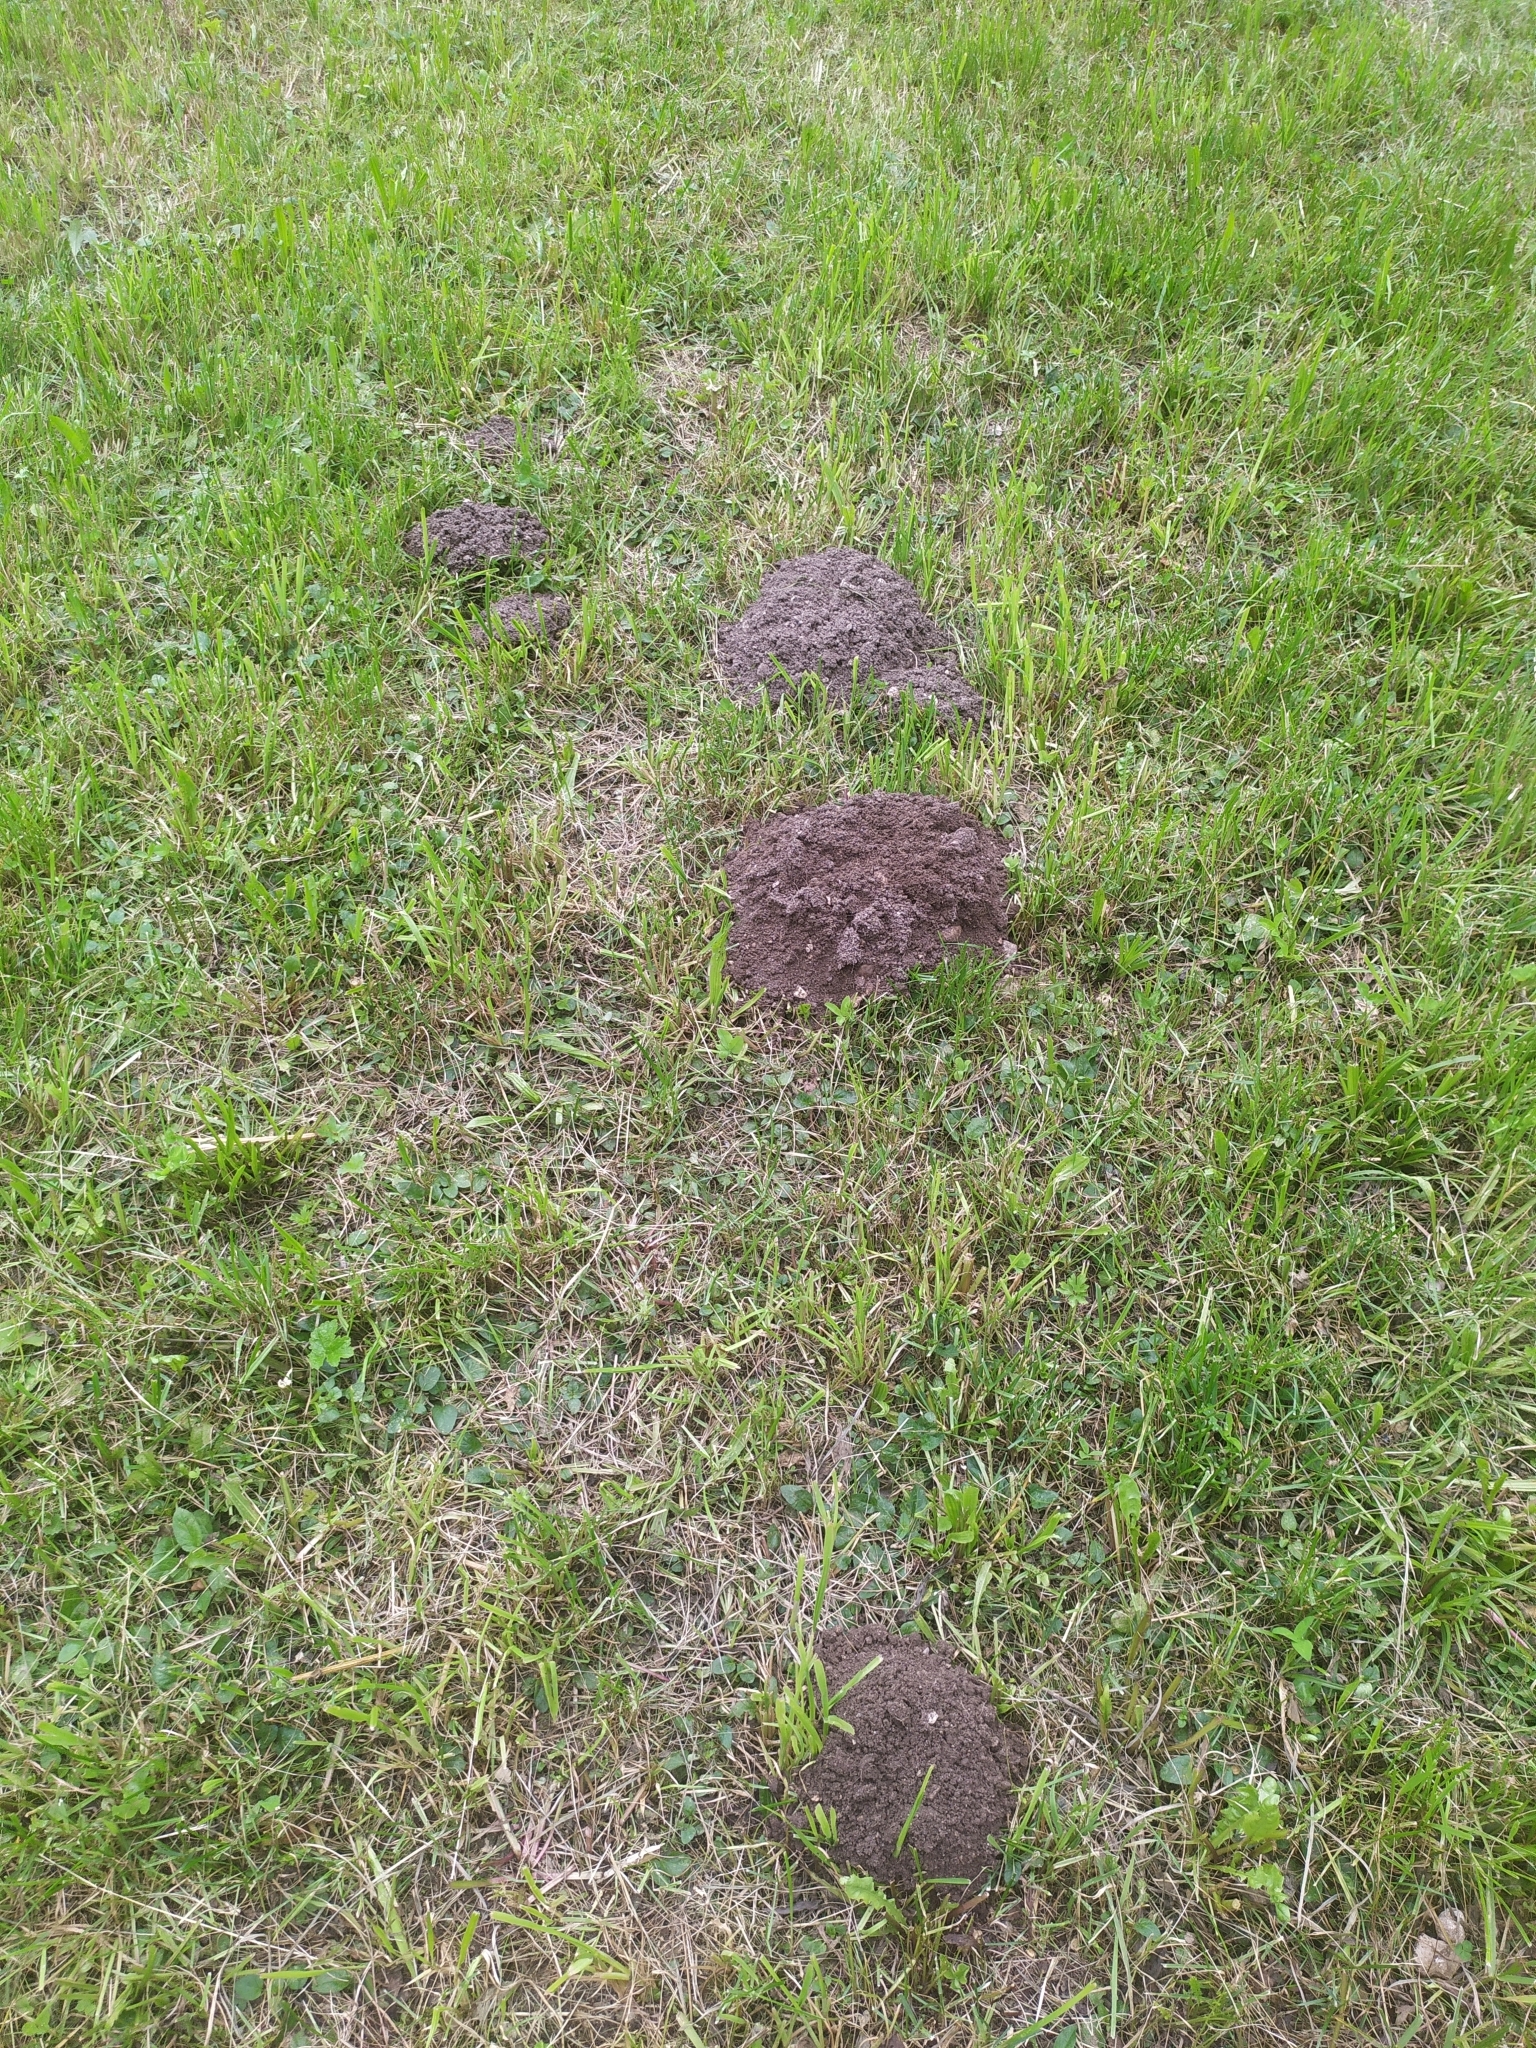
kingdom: Animalia
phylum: Chordata
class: Mammalia
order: Soricomorpha
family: Talpidae
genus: Talpa
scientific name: Talpa europaea
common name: European mole
